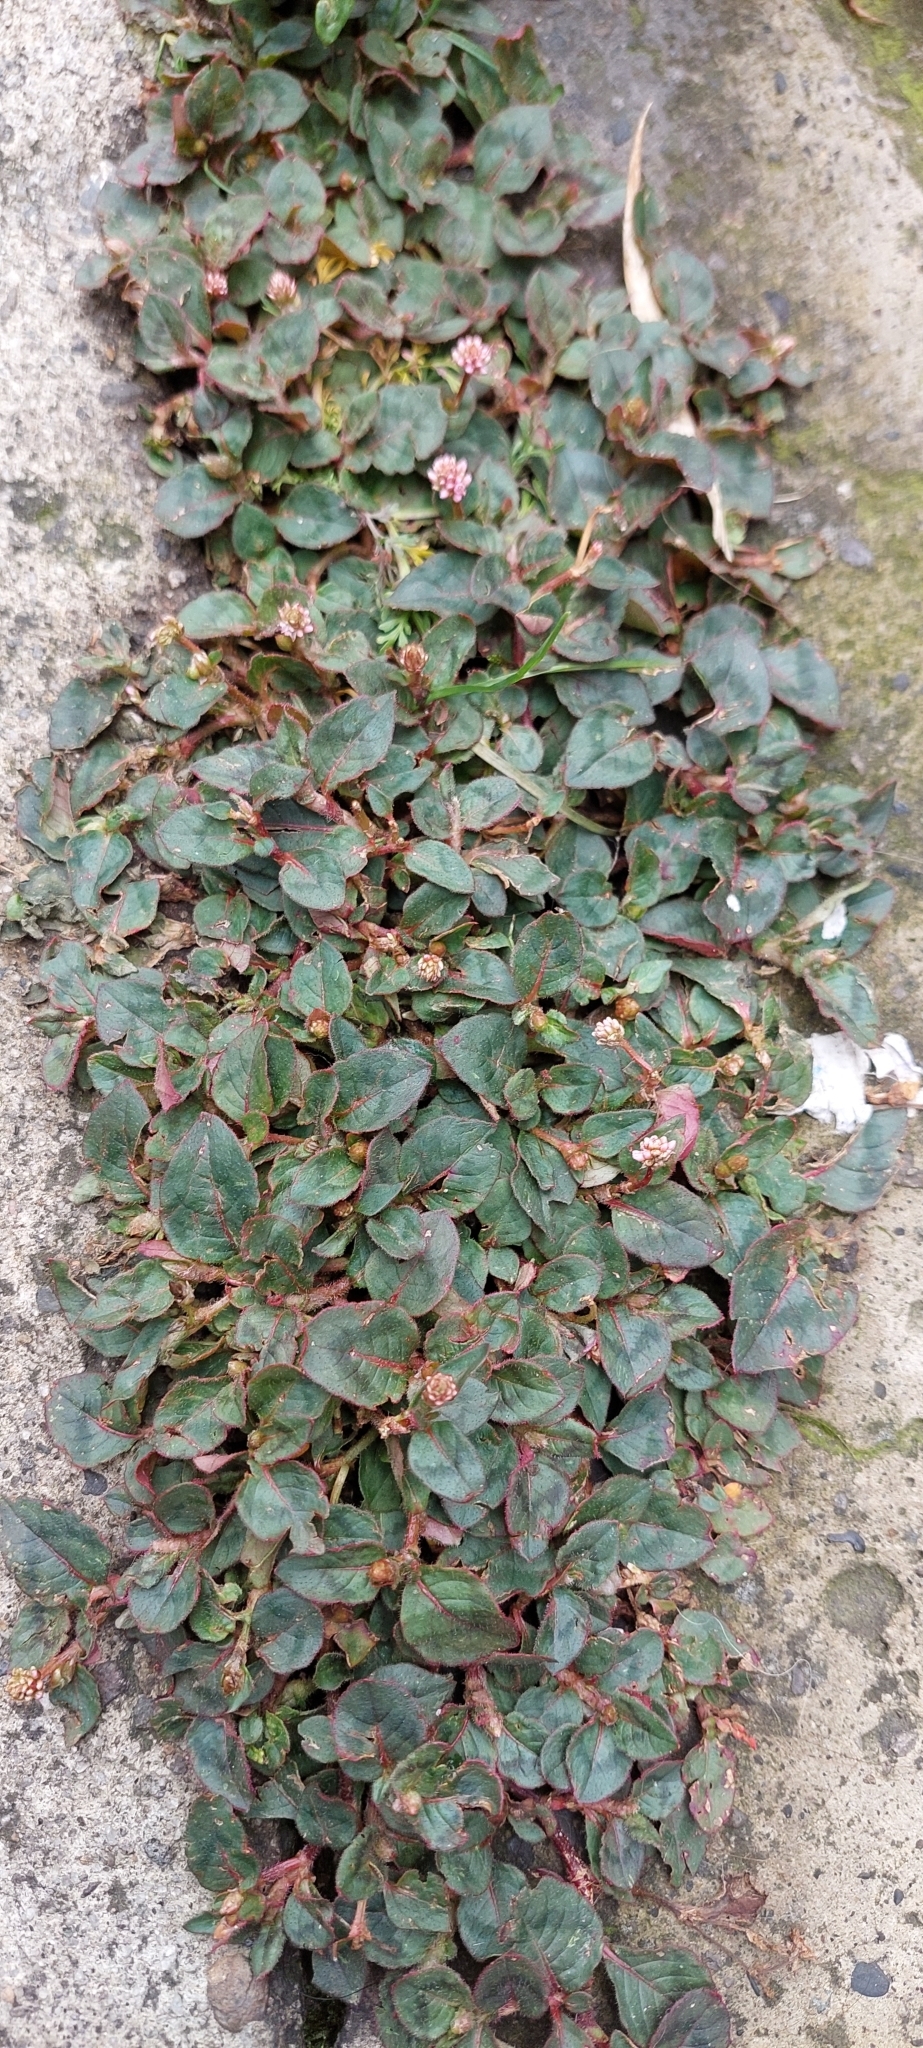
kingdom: Plantae
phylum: Tracheophyta
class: Magnoliopsida
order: Caryophyllales
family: Polygonaceae
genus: Persicaria
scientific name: Persicaria capitata
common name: Pinkhead smartweed
